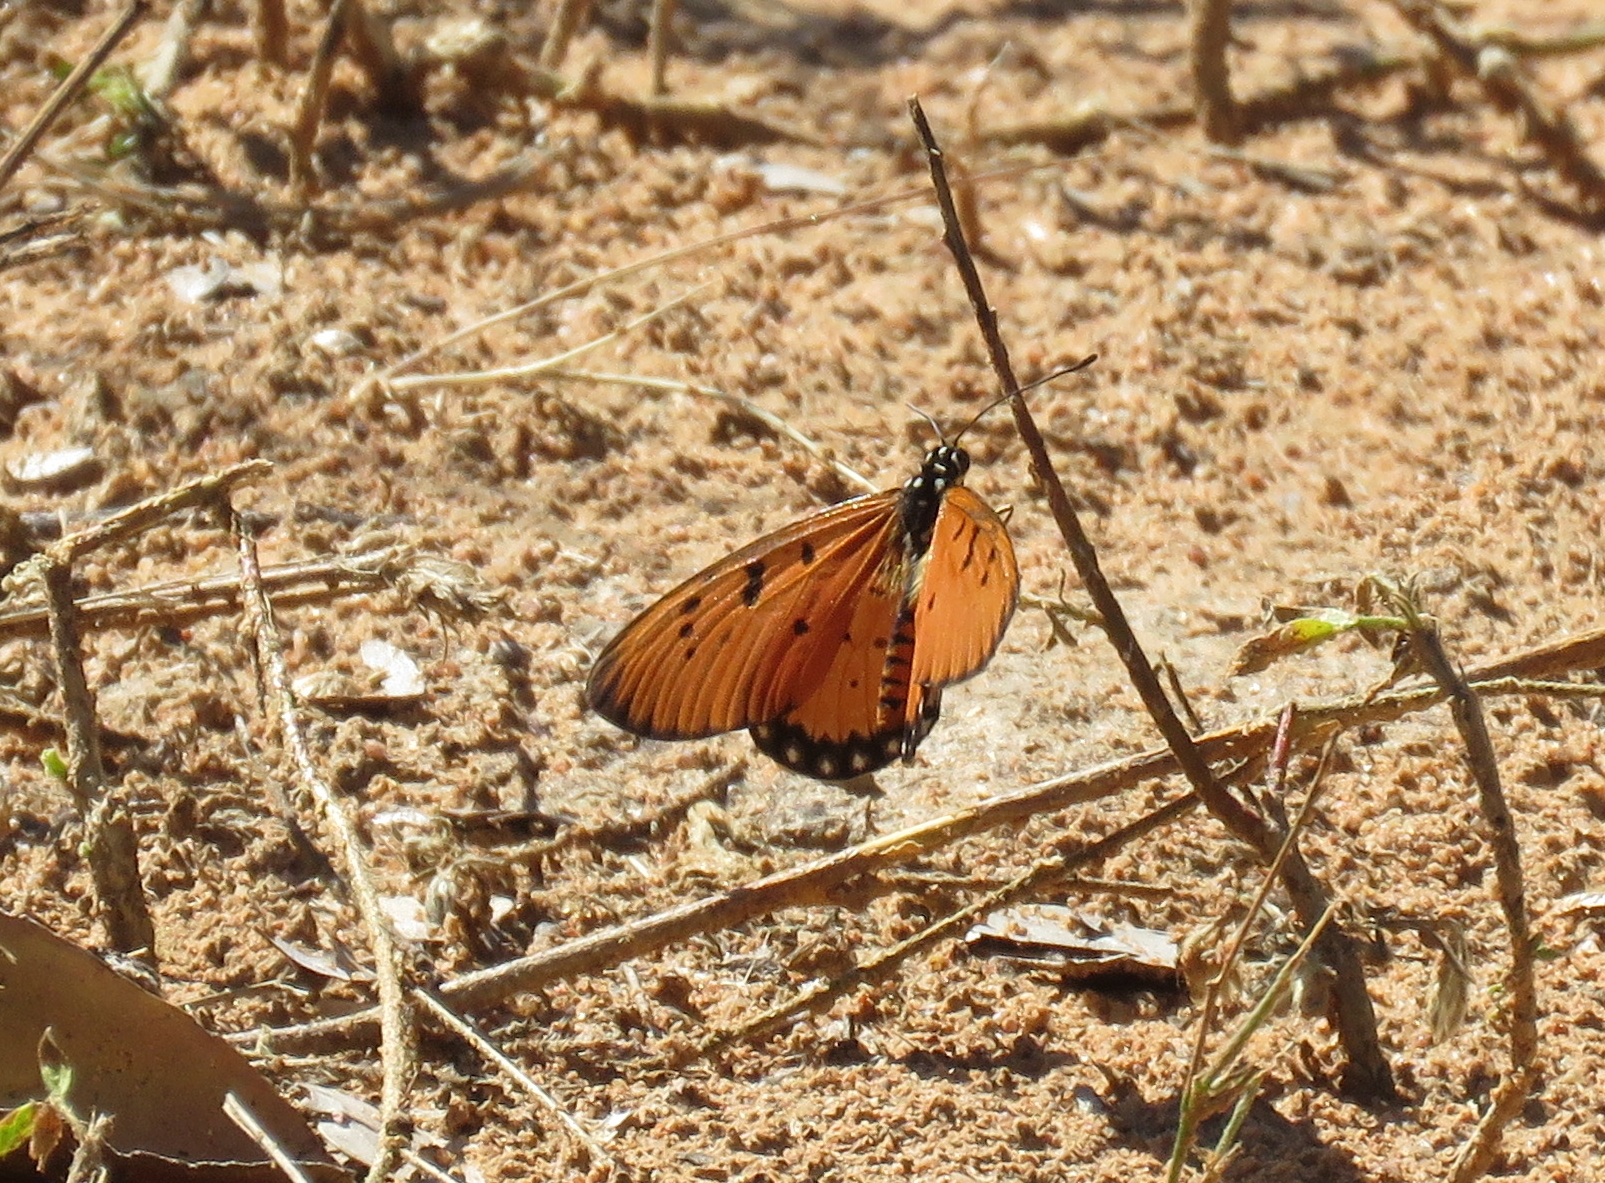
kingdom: Animalia
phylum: Arthropoda
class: Insecta
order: Lepidoptera
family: Nymphalidae
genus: Acraea
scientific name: Acraea terpsicore
